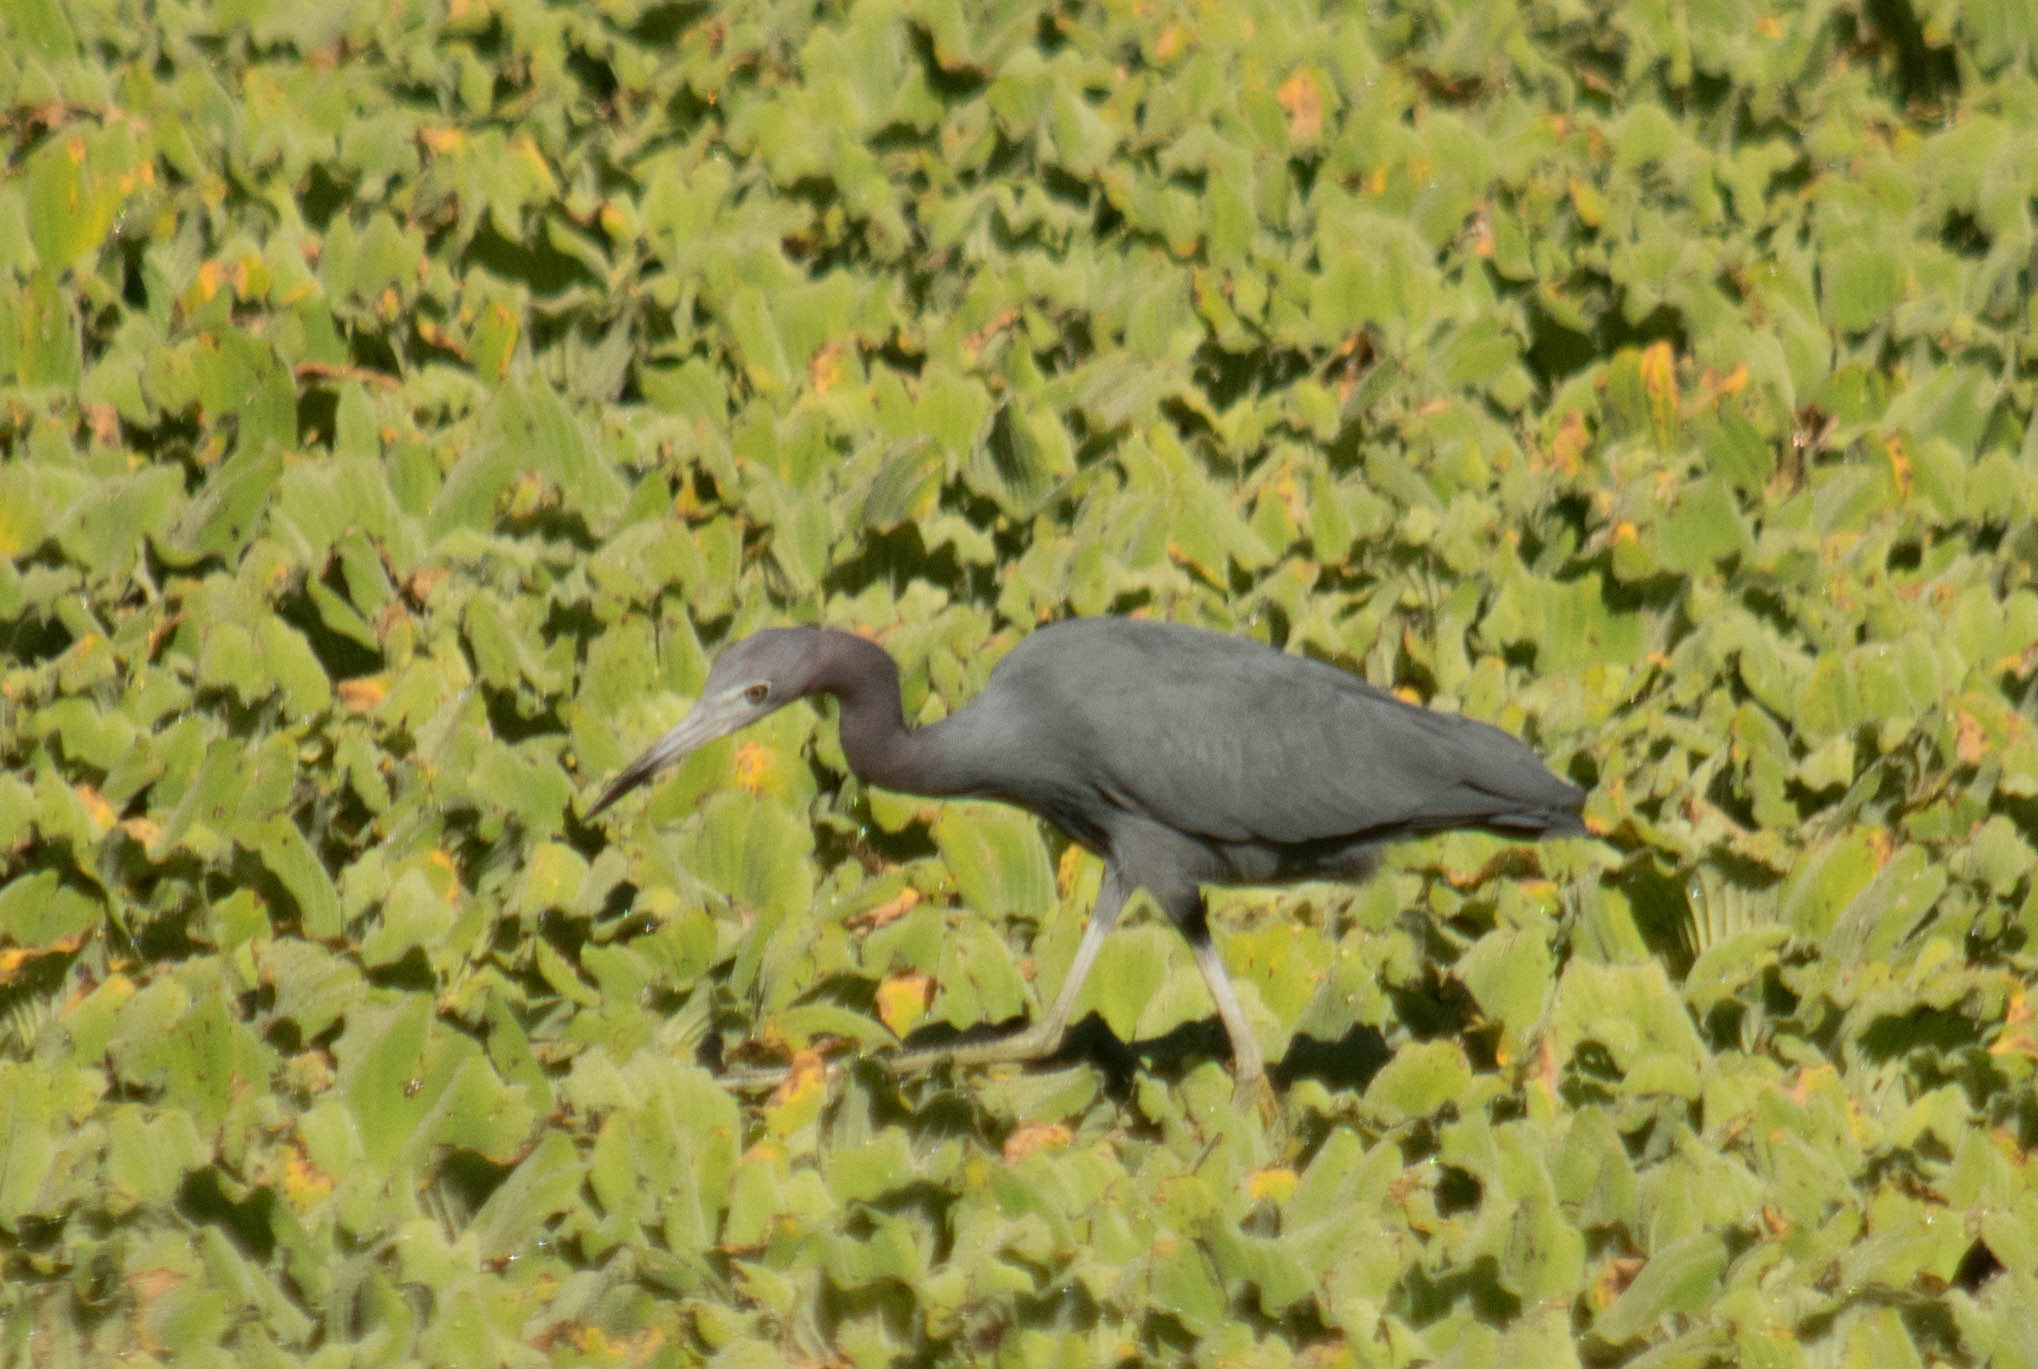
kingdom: Animalia
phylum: Chordata
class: Aves
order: Pelecaniformes
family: Ardeidae
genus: Egretta
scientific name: Egretta caerulea
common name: Little blue heron
